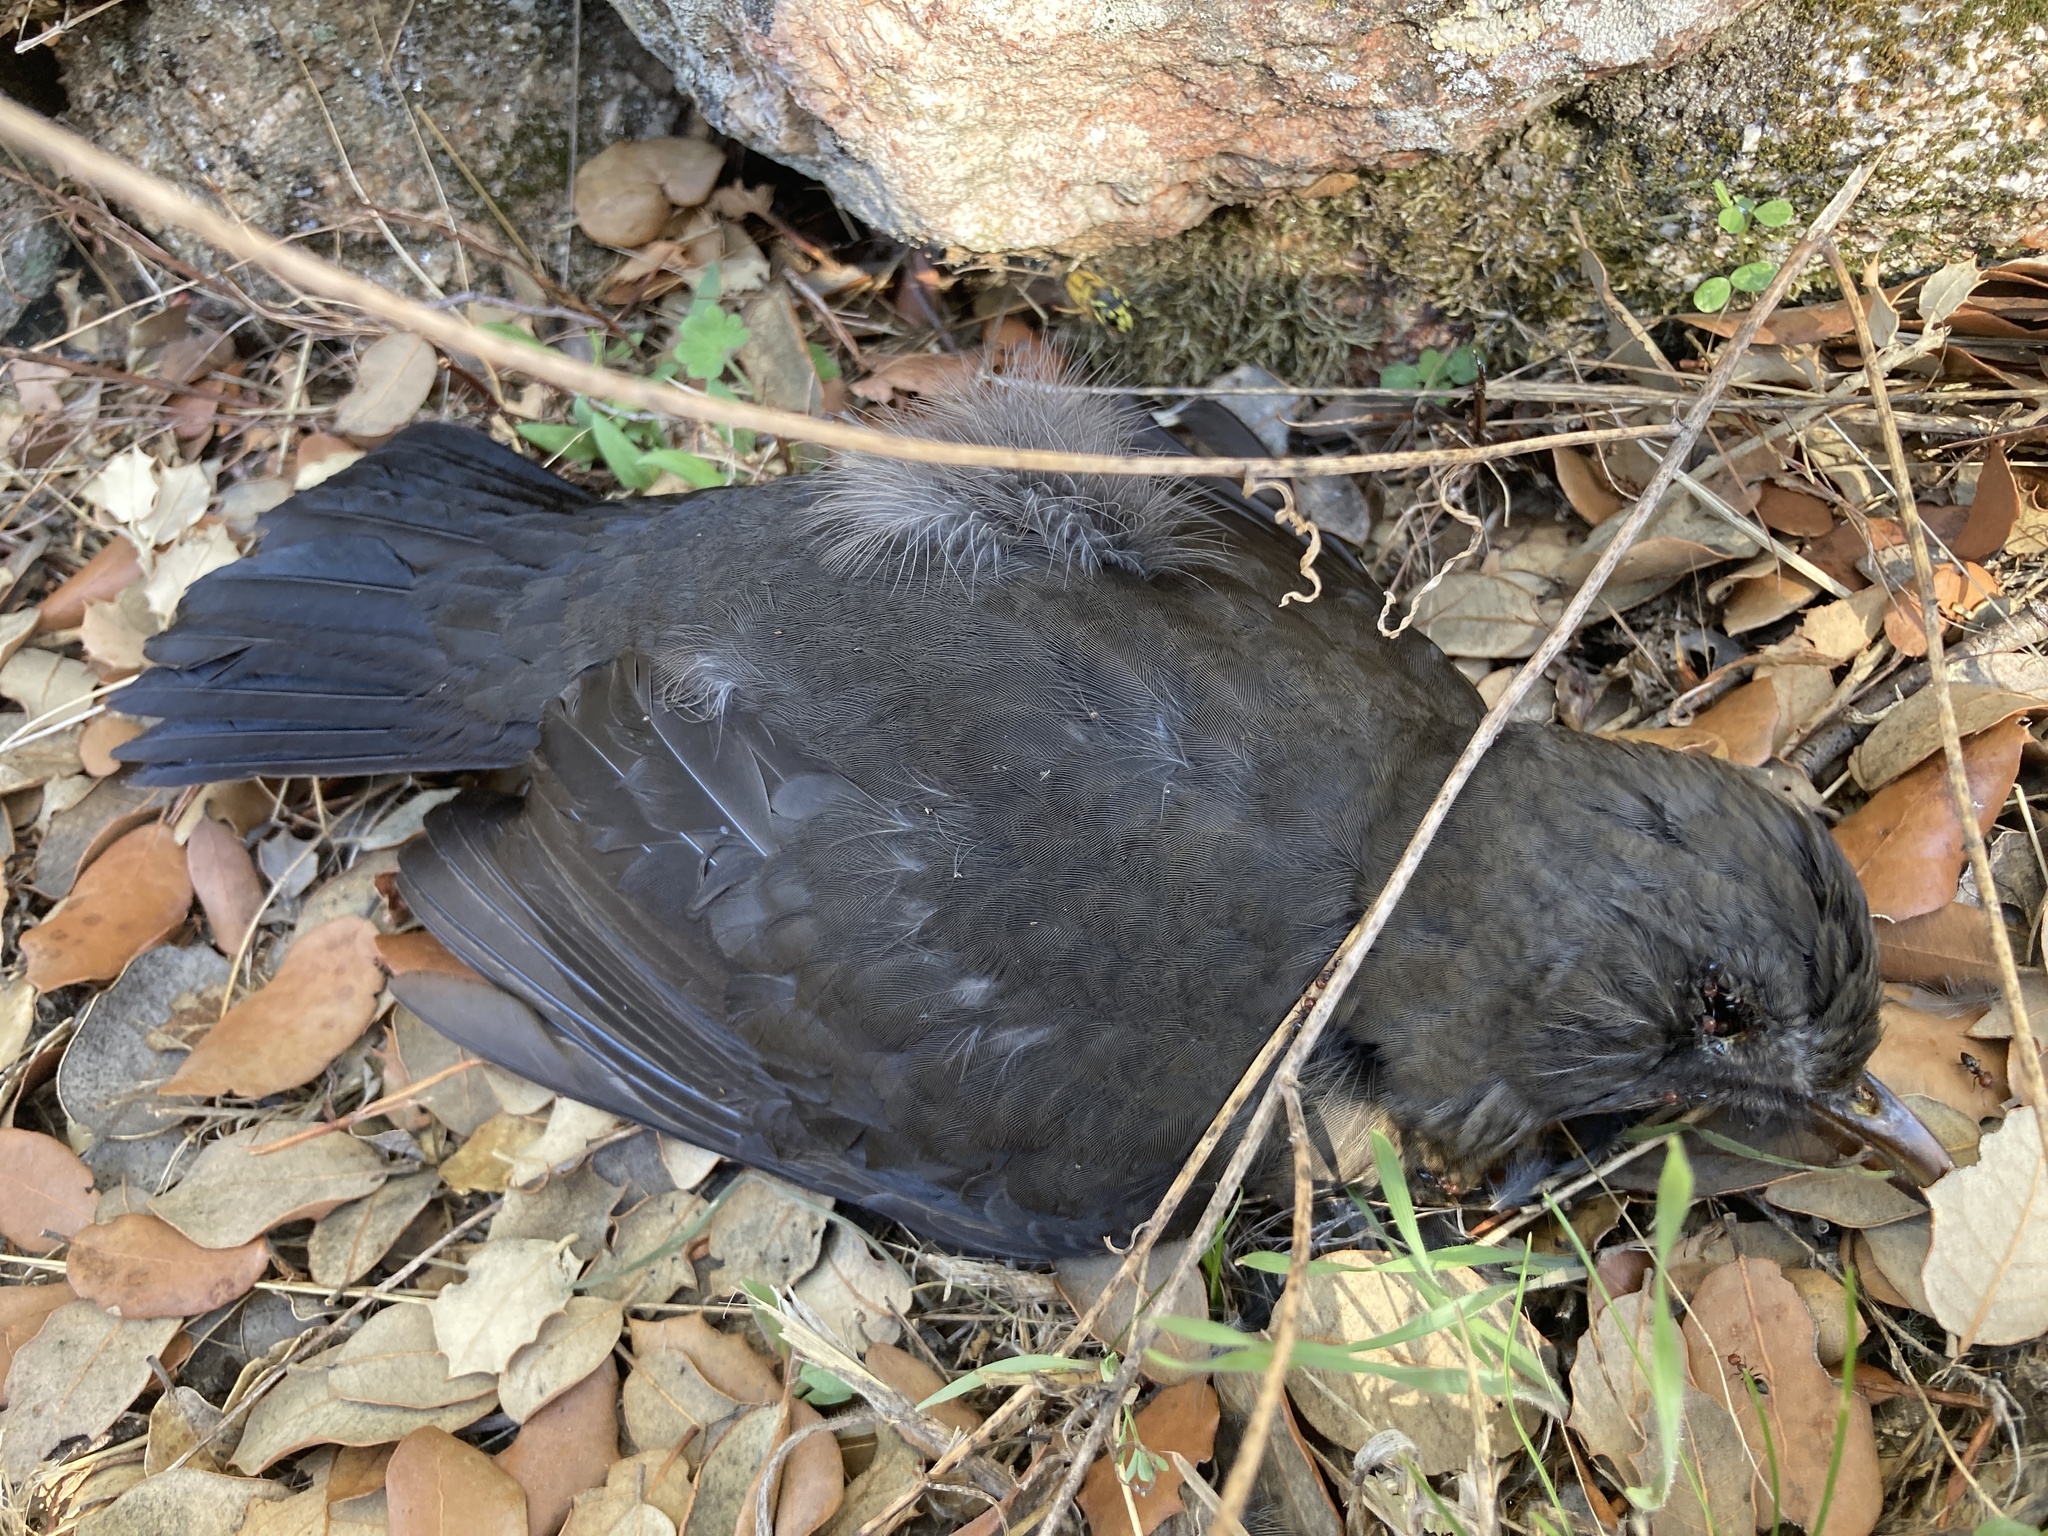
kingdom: Animalia
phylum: Chordata
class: Aves
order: Passeriformes
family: Turdidae
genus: Turdus
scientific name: Turdus merula
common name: Common blackbird
